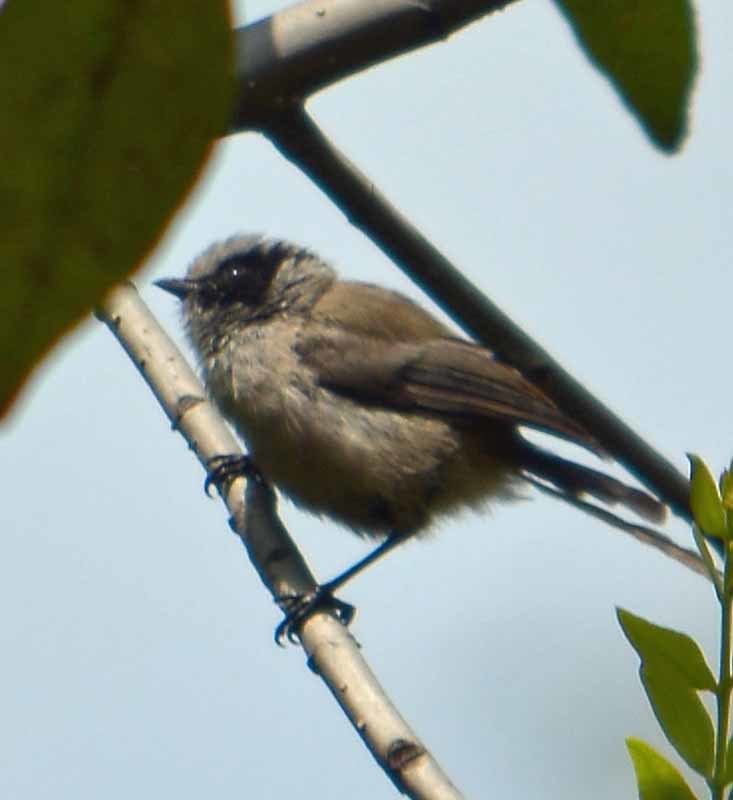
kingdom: Animalia
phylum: Chordata
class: Aves
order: Passeriformes
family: Aegithalidae
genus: Psaltriparus
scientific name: Psaltriparus minimus
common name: American bushtit
